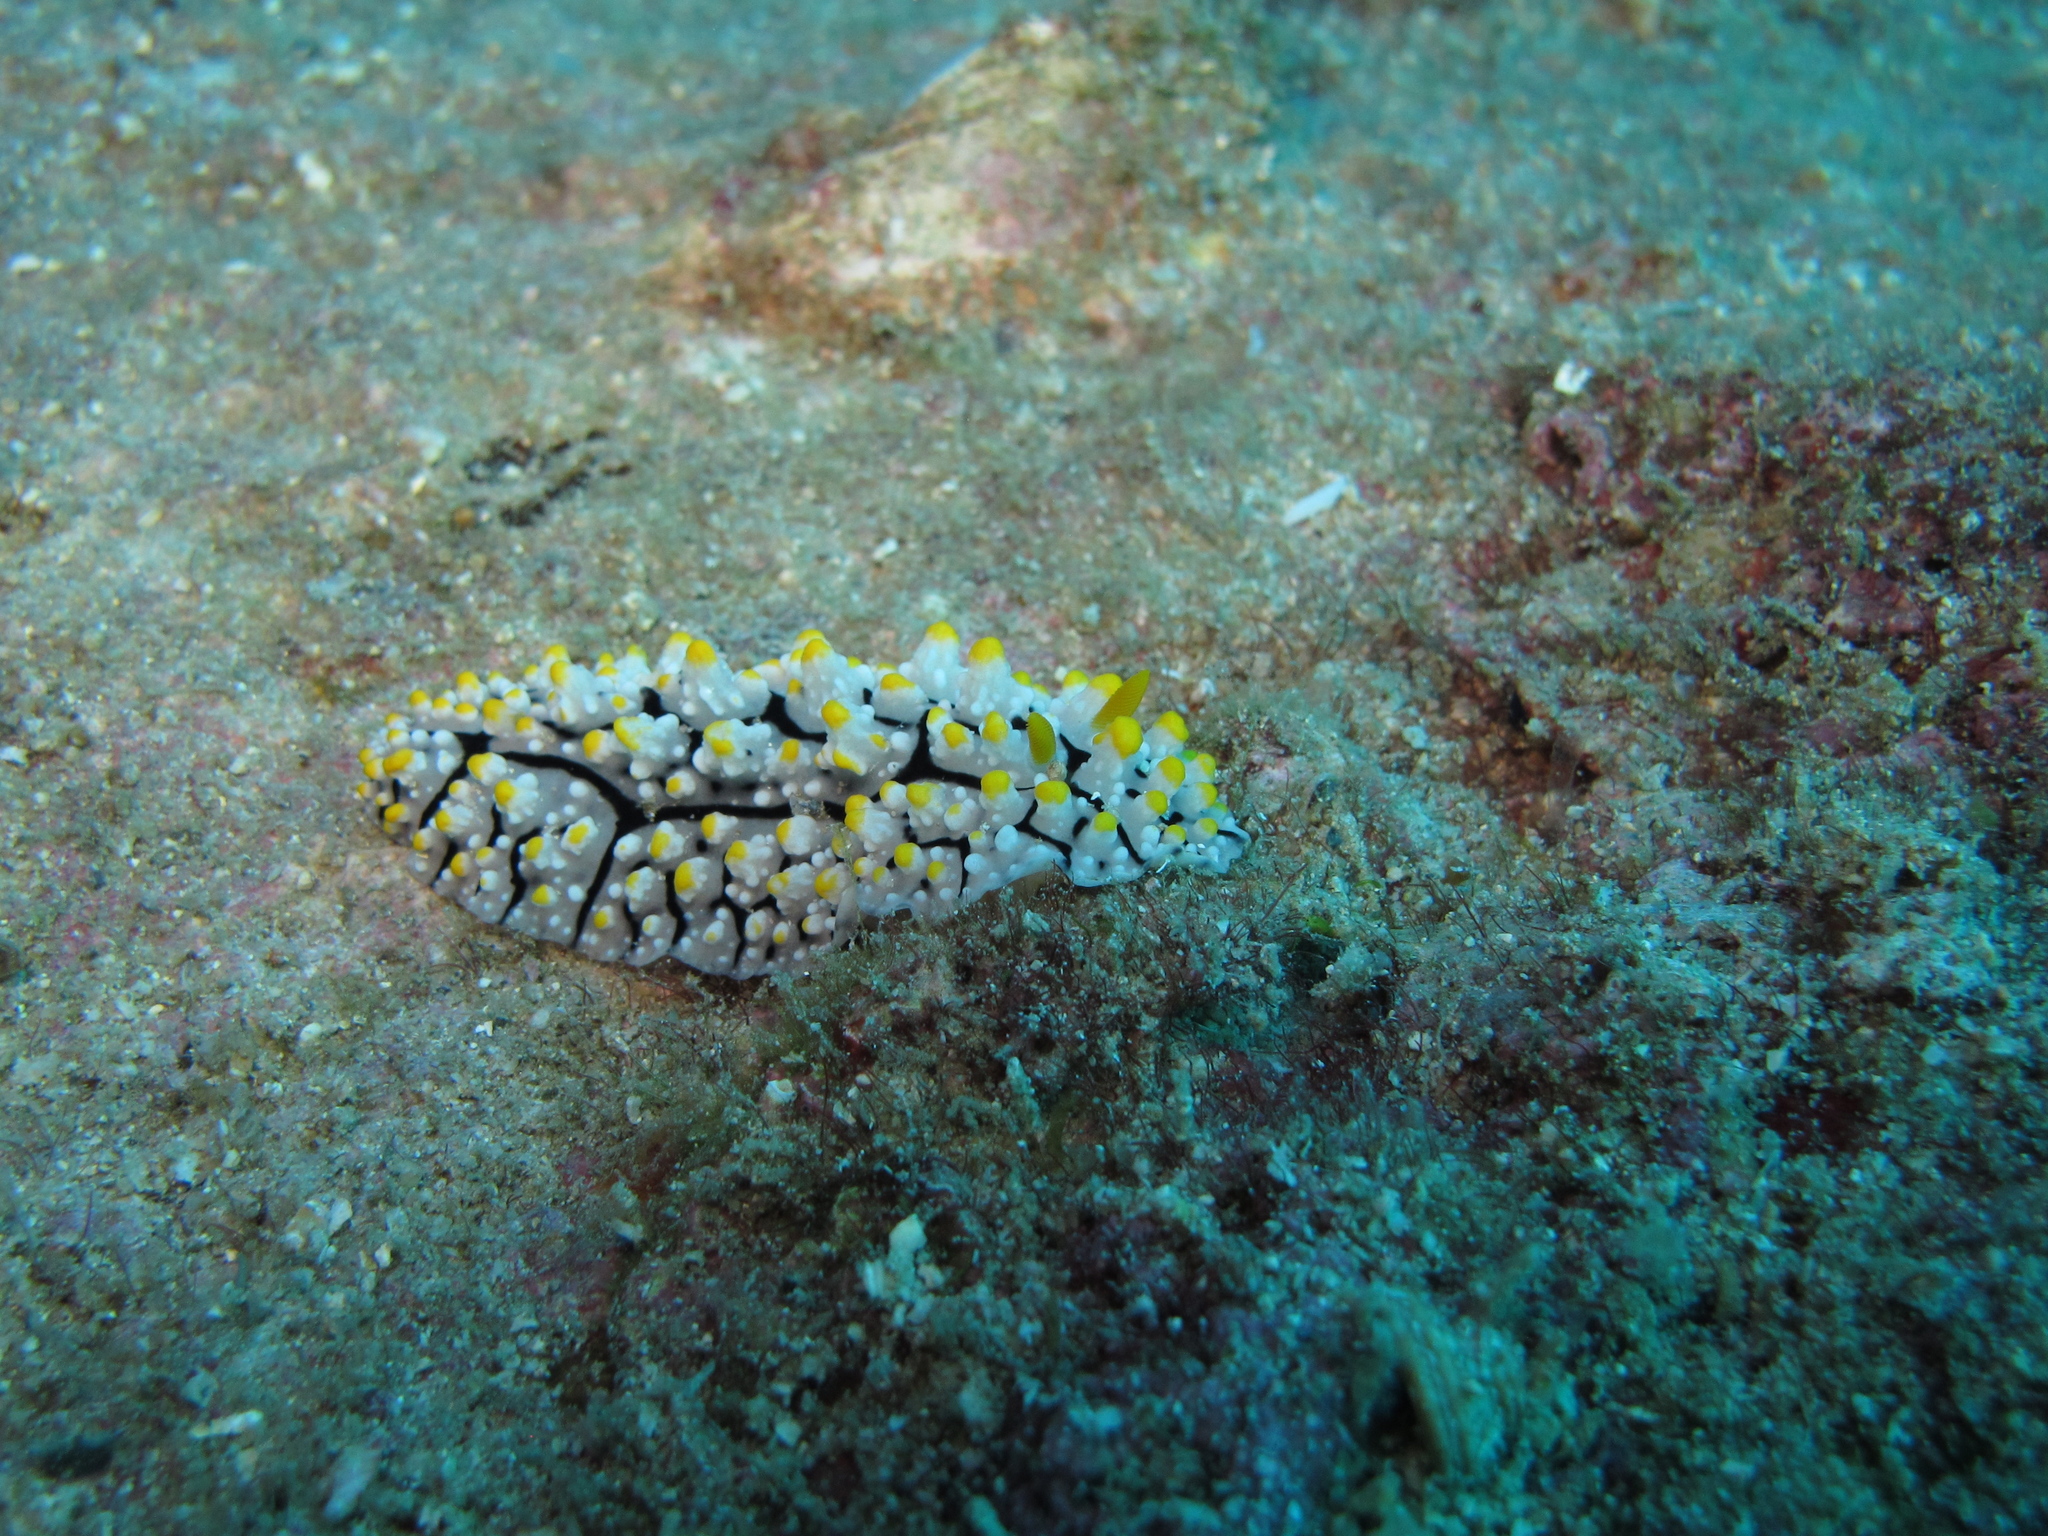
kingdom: Animalia
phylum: Mollusca
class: Gastropoda
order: Nudibranchia
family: Phyllidiidae
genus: Phyllidia
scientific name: Phyllidia elegans
